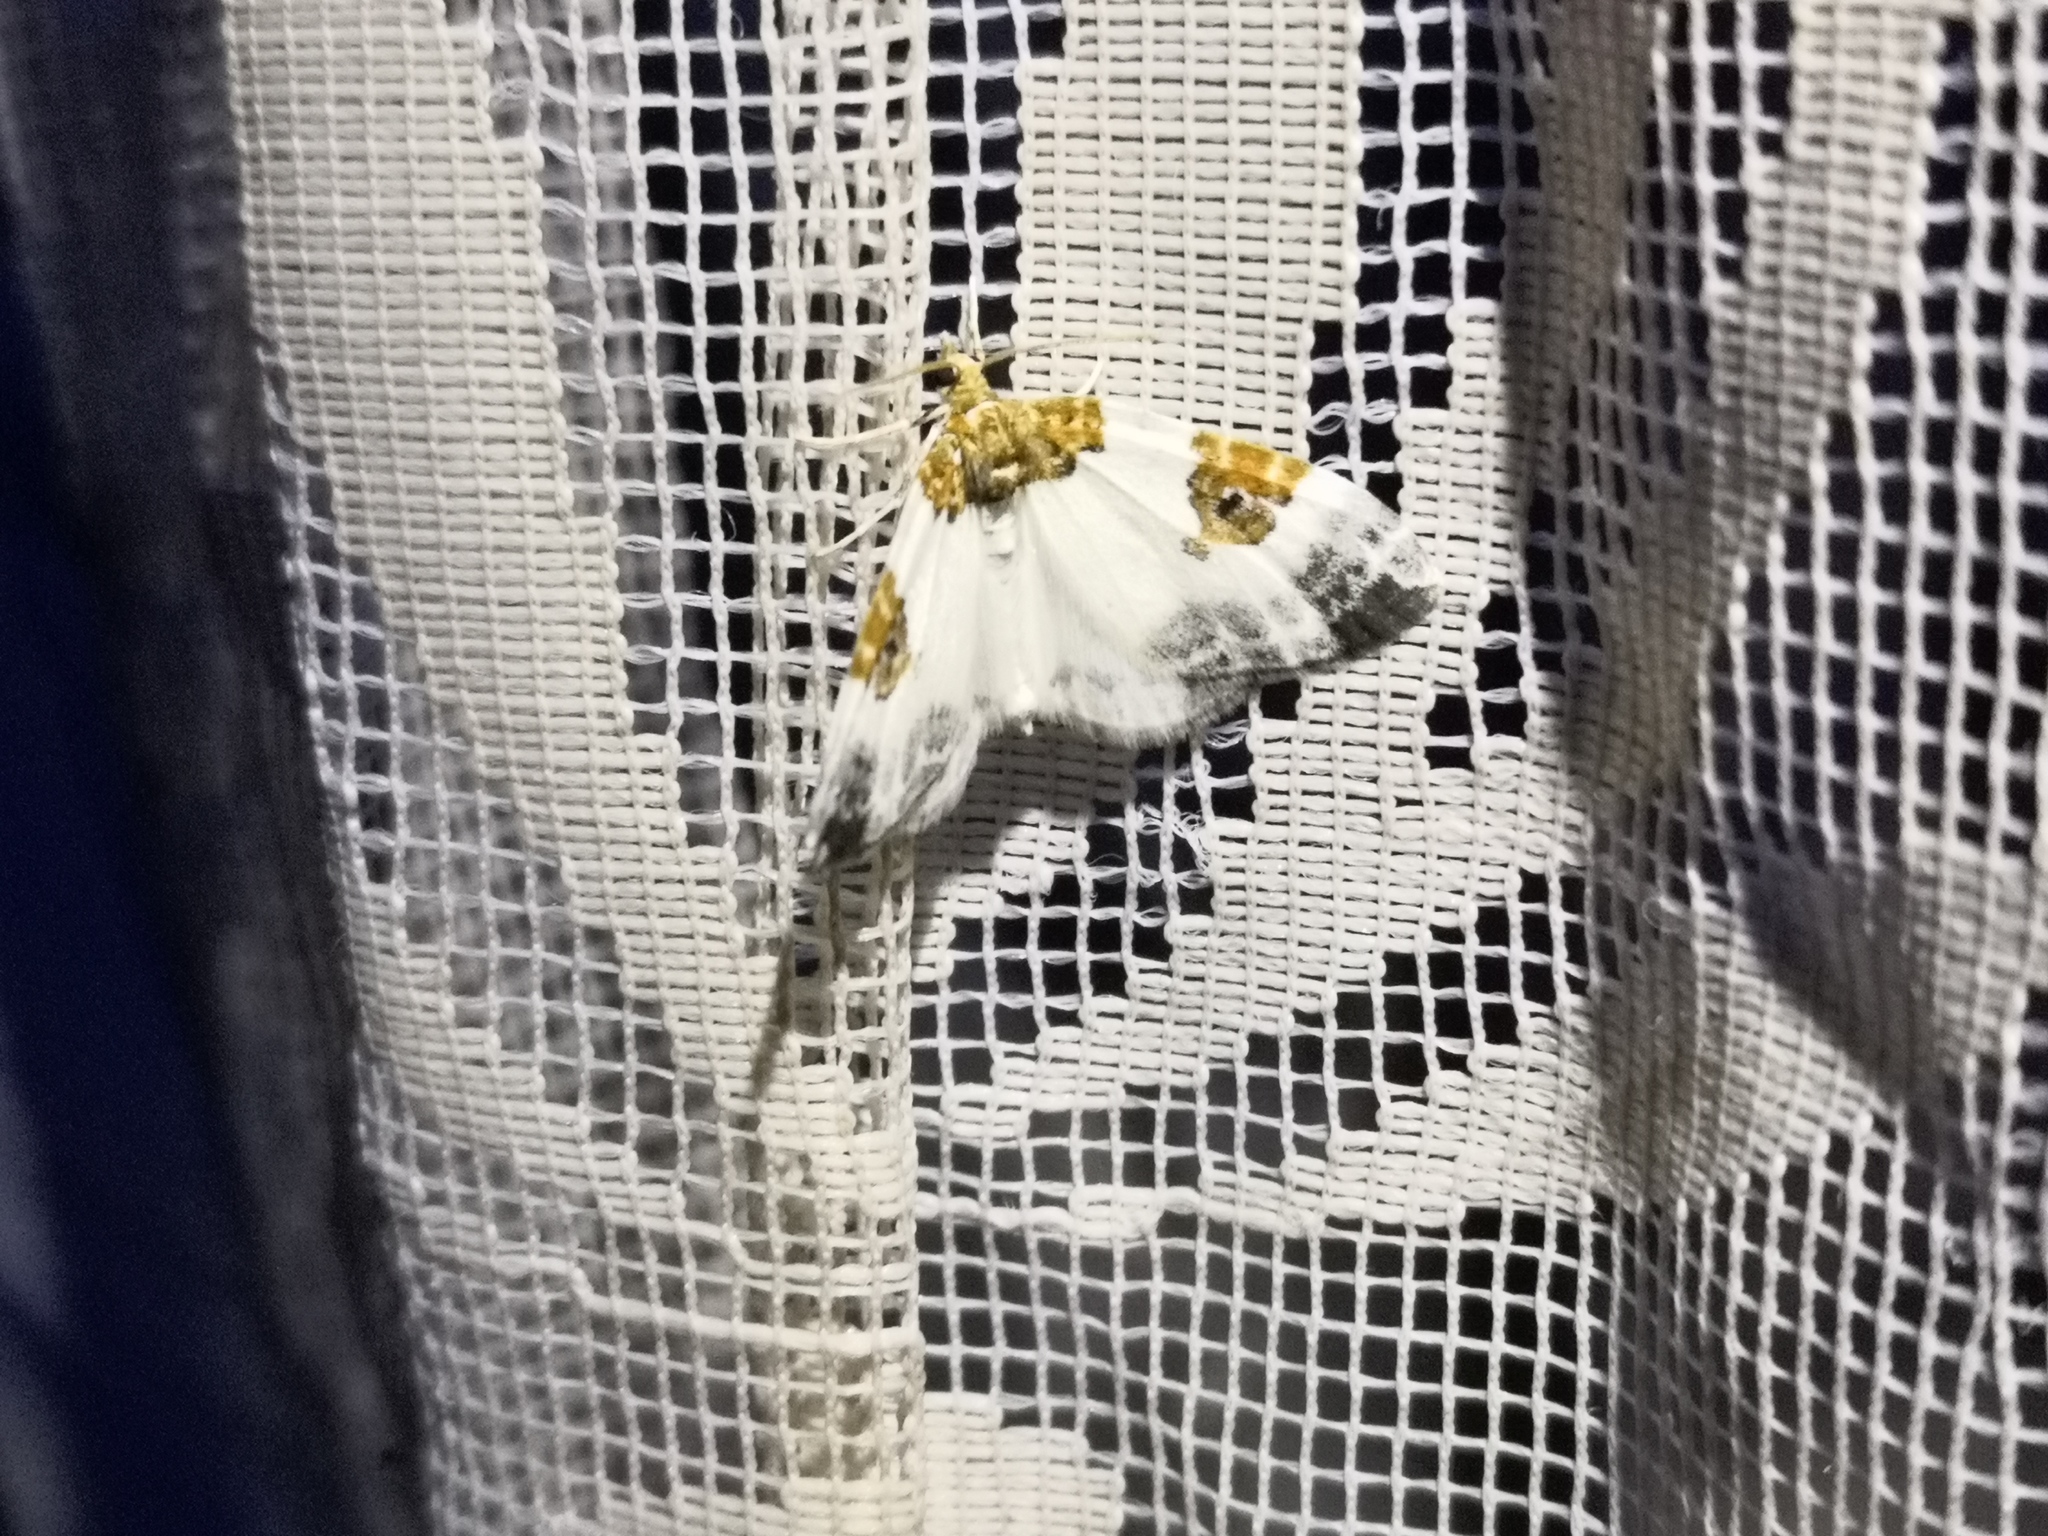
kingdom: Animalia
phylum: Arthropoda
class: Insecta
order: Lepidoptera
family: Geometridae
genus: Plemyria
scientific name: Plemyria rubiginata
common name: Blue-bordered carpet
